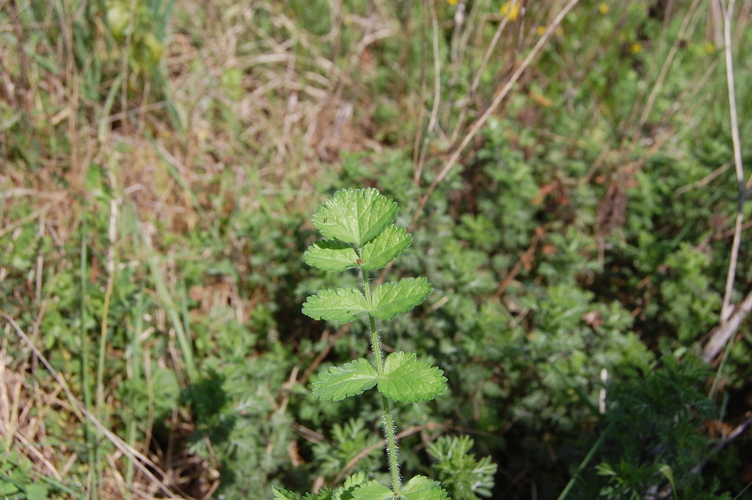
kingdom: Plantae
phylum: Tracheophyta
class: Magnoliopsida
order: Geraniales
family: Geraniaceae
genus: Erodium
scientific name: Erodium moschatum
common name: Musk stork's-bill
